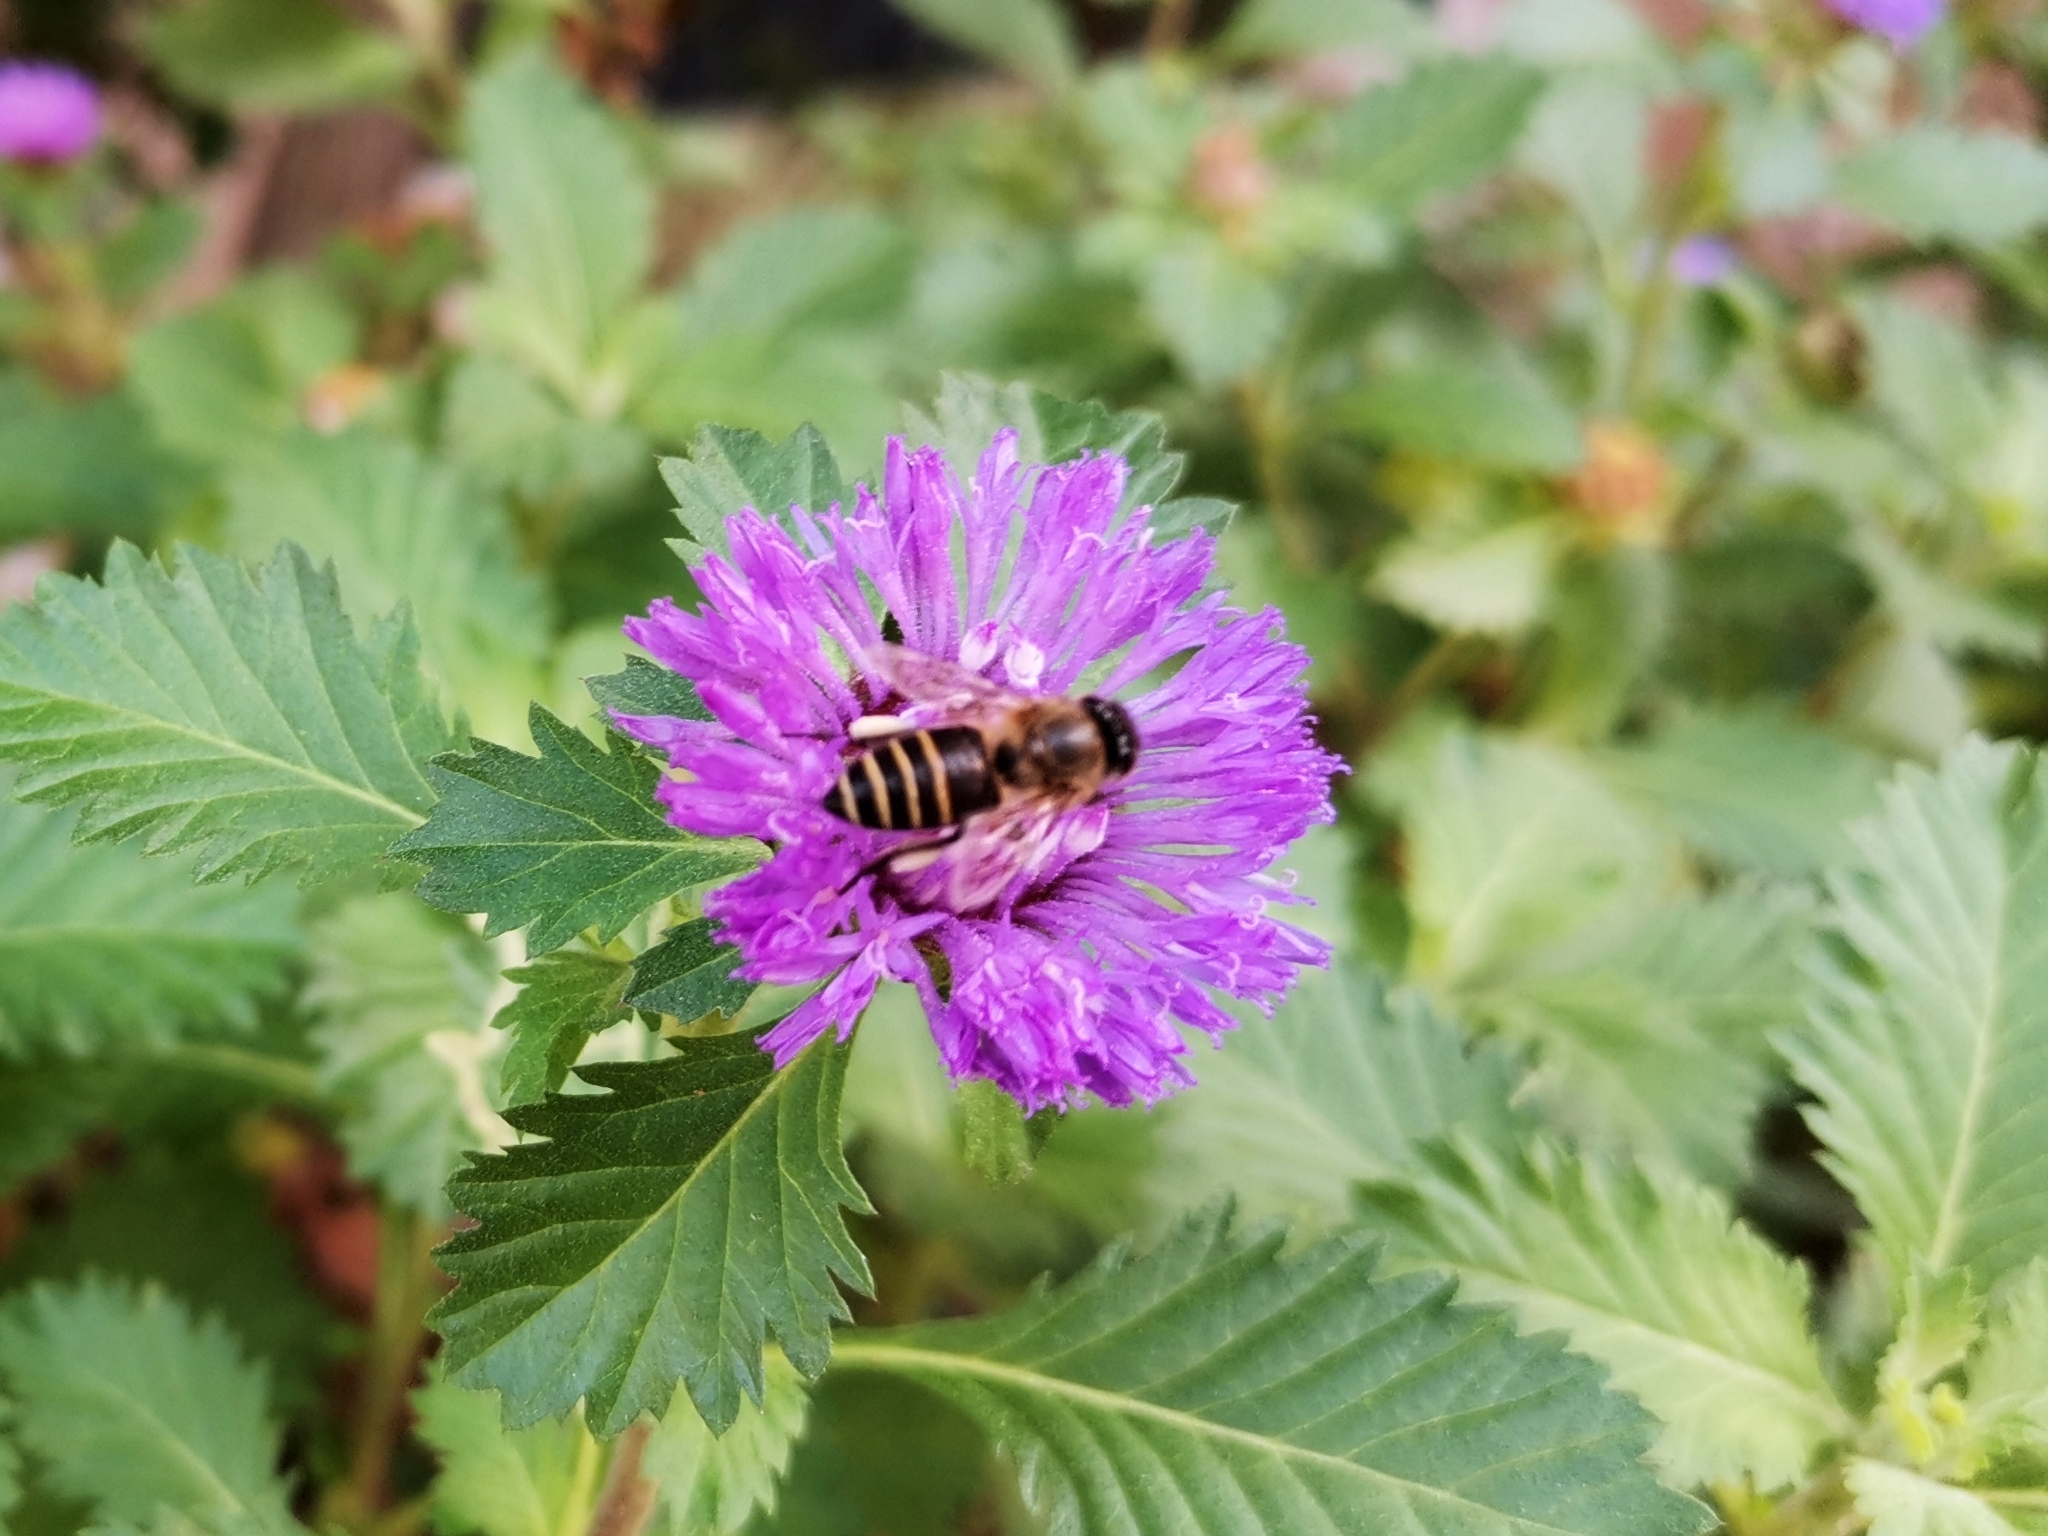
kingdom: Animalia
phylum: Arthropoda
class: Insecta
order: Hymenoptera
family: Apidae
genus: Apis
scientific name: Apis cerana
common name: Honey bee
